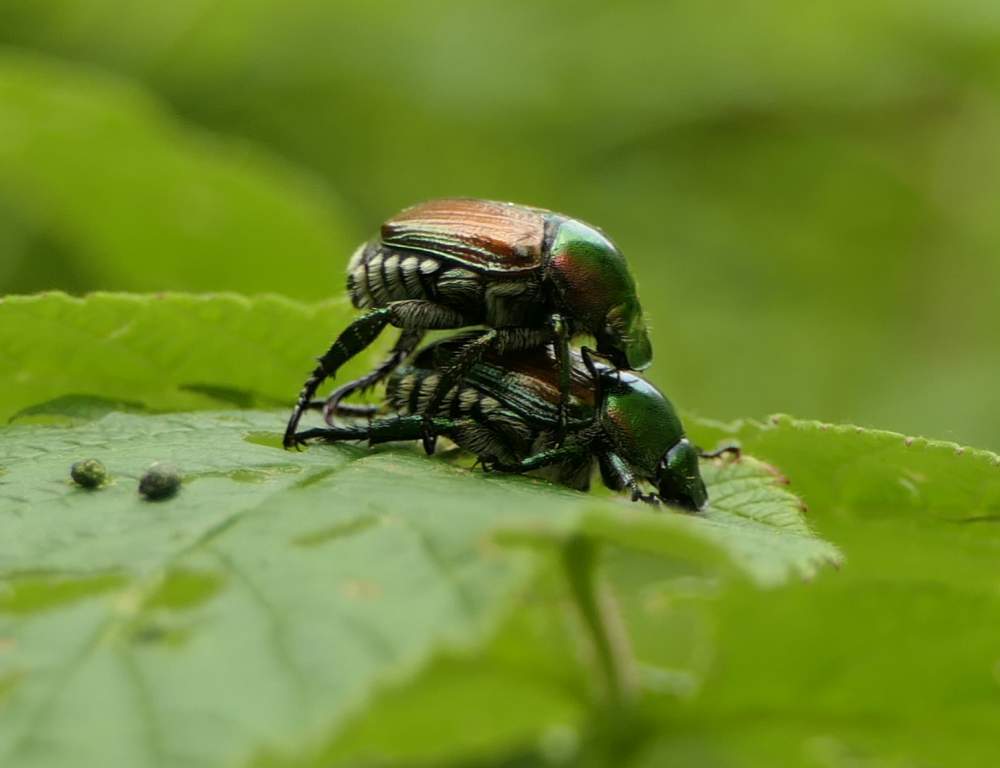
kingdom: Animalia
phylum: Arthropoda
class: Insecta
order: Coleoptera
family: Scarabaeidae
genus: Popillia
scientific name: Popillia japonica
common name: Japanese beetle
